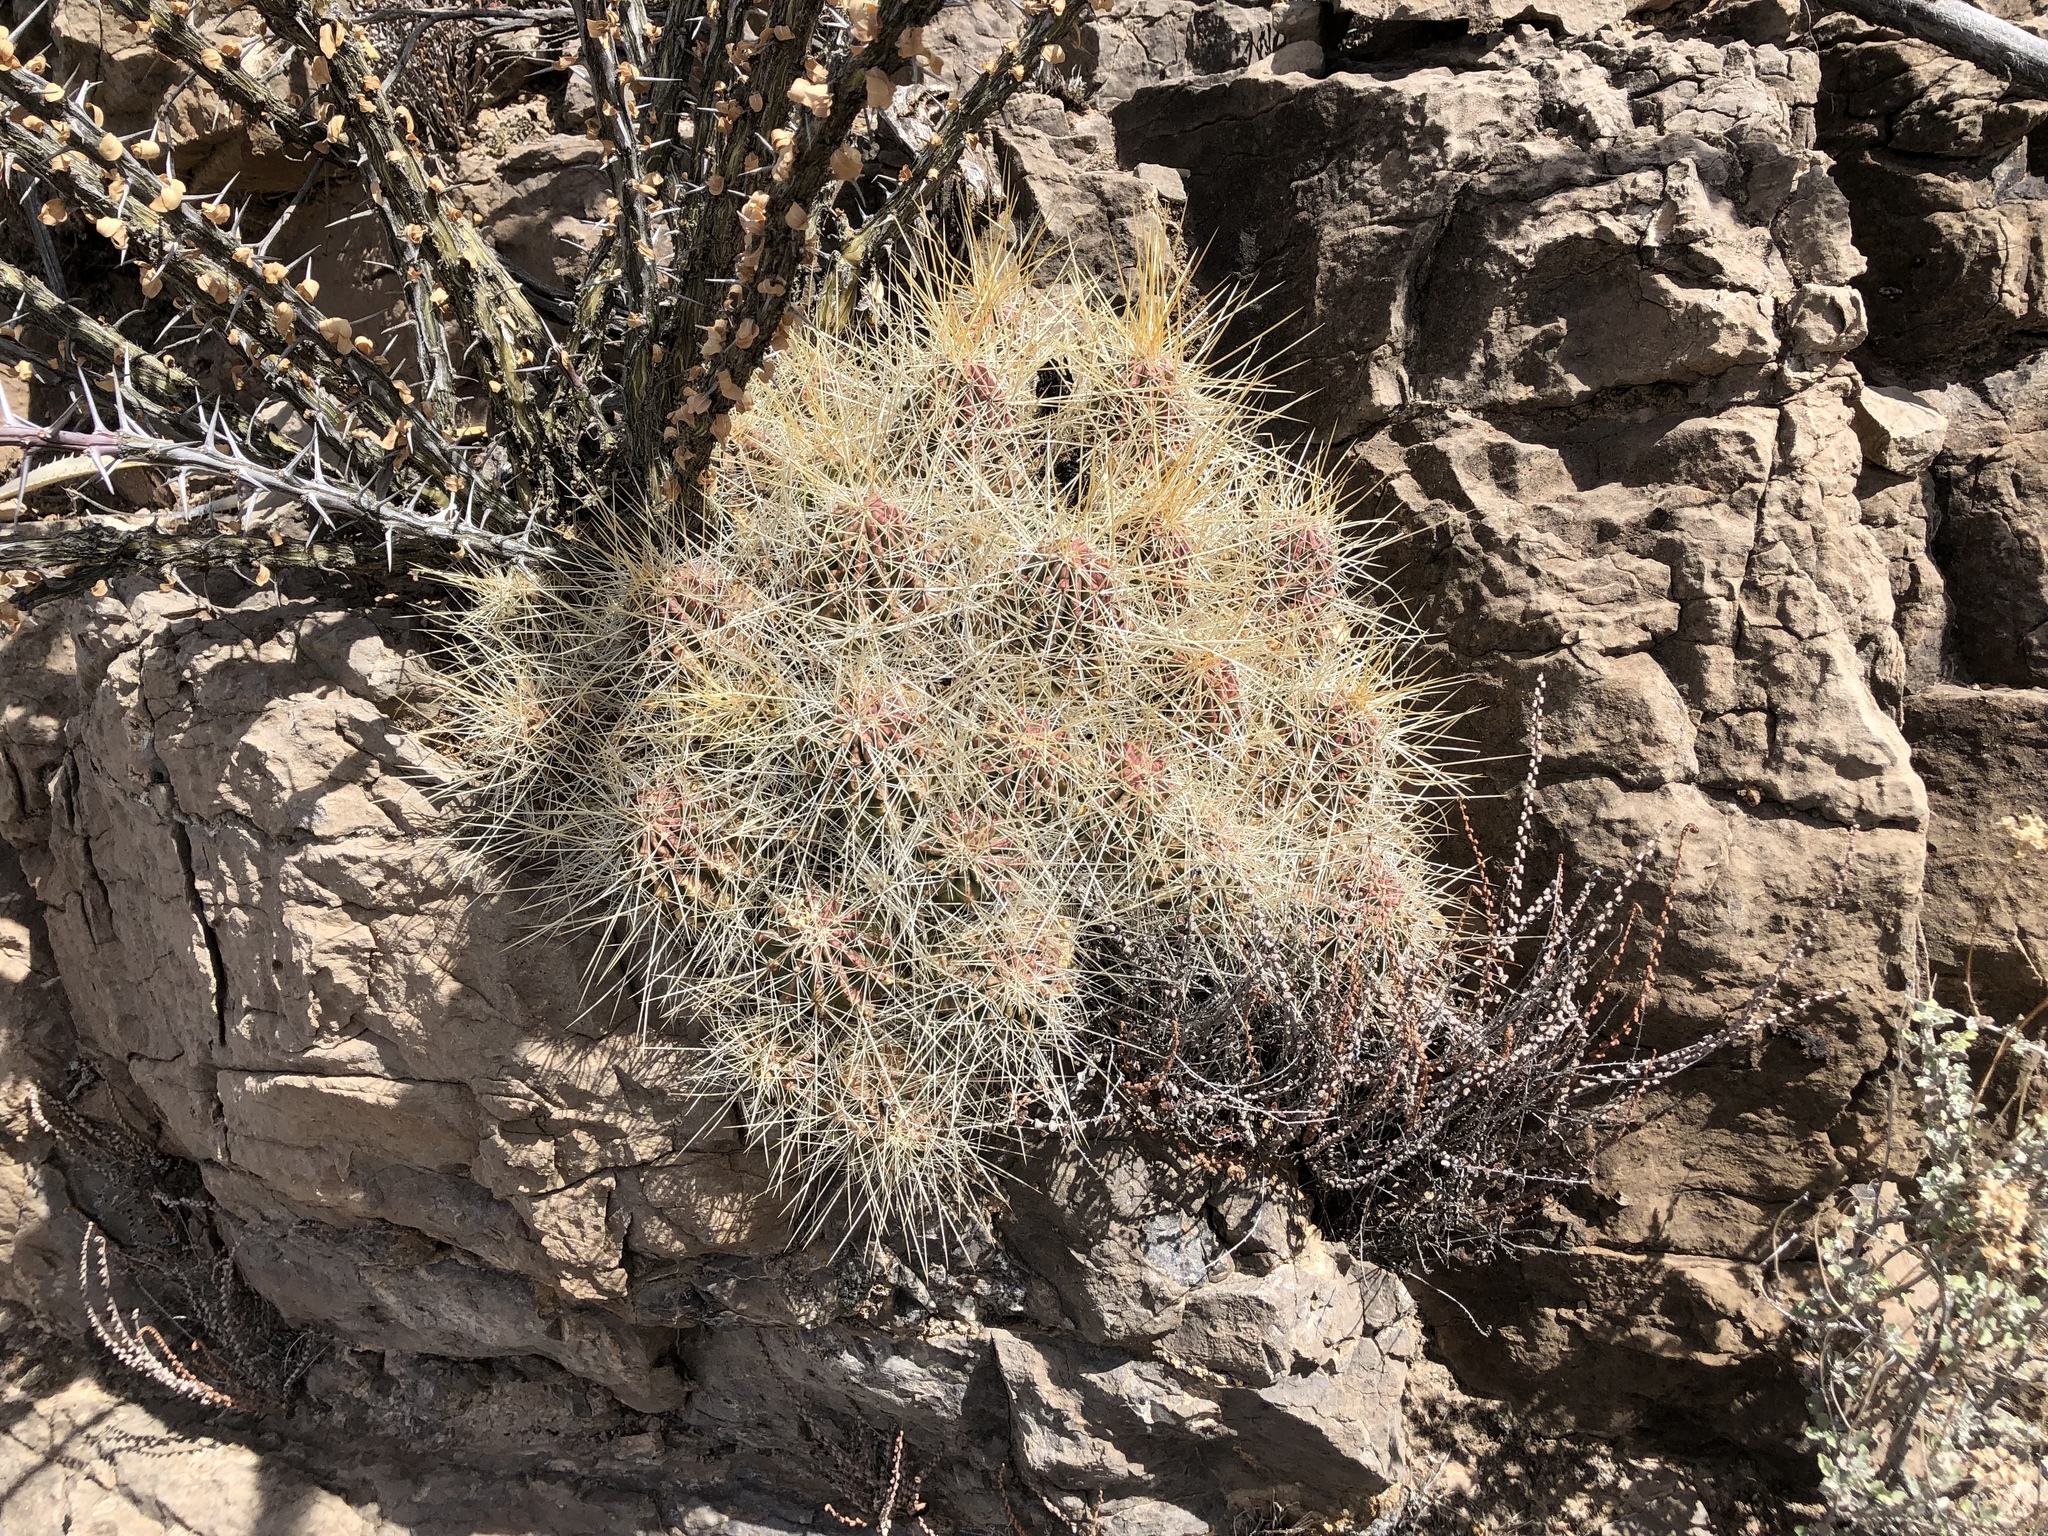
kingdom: Plantae
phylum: Tracheophyta
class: Magnoliopsida
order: Caryophyllales
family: Cactaceae
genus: Echinocereus
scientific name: Echinocereus stramineus
